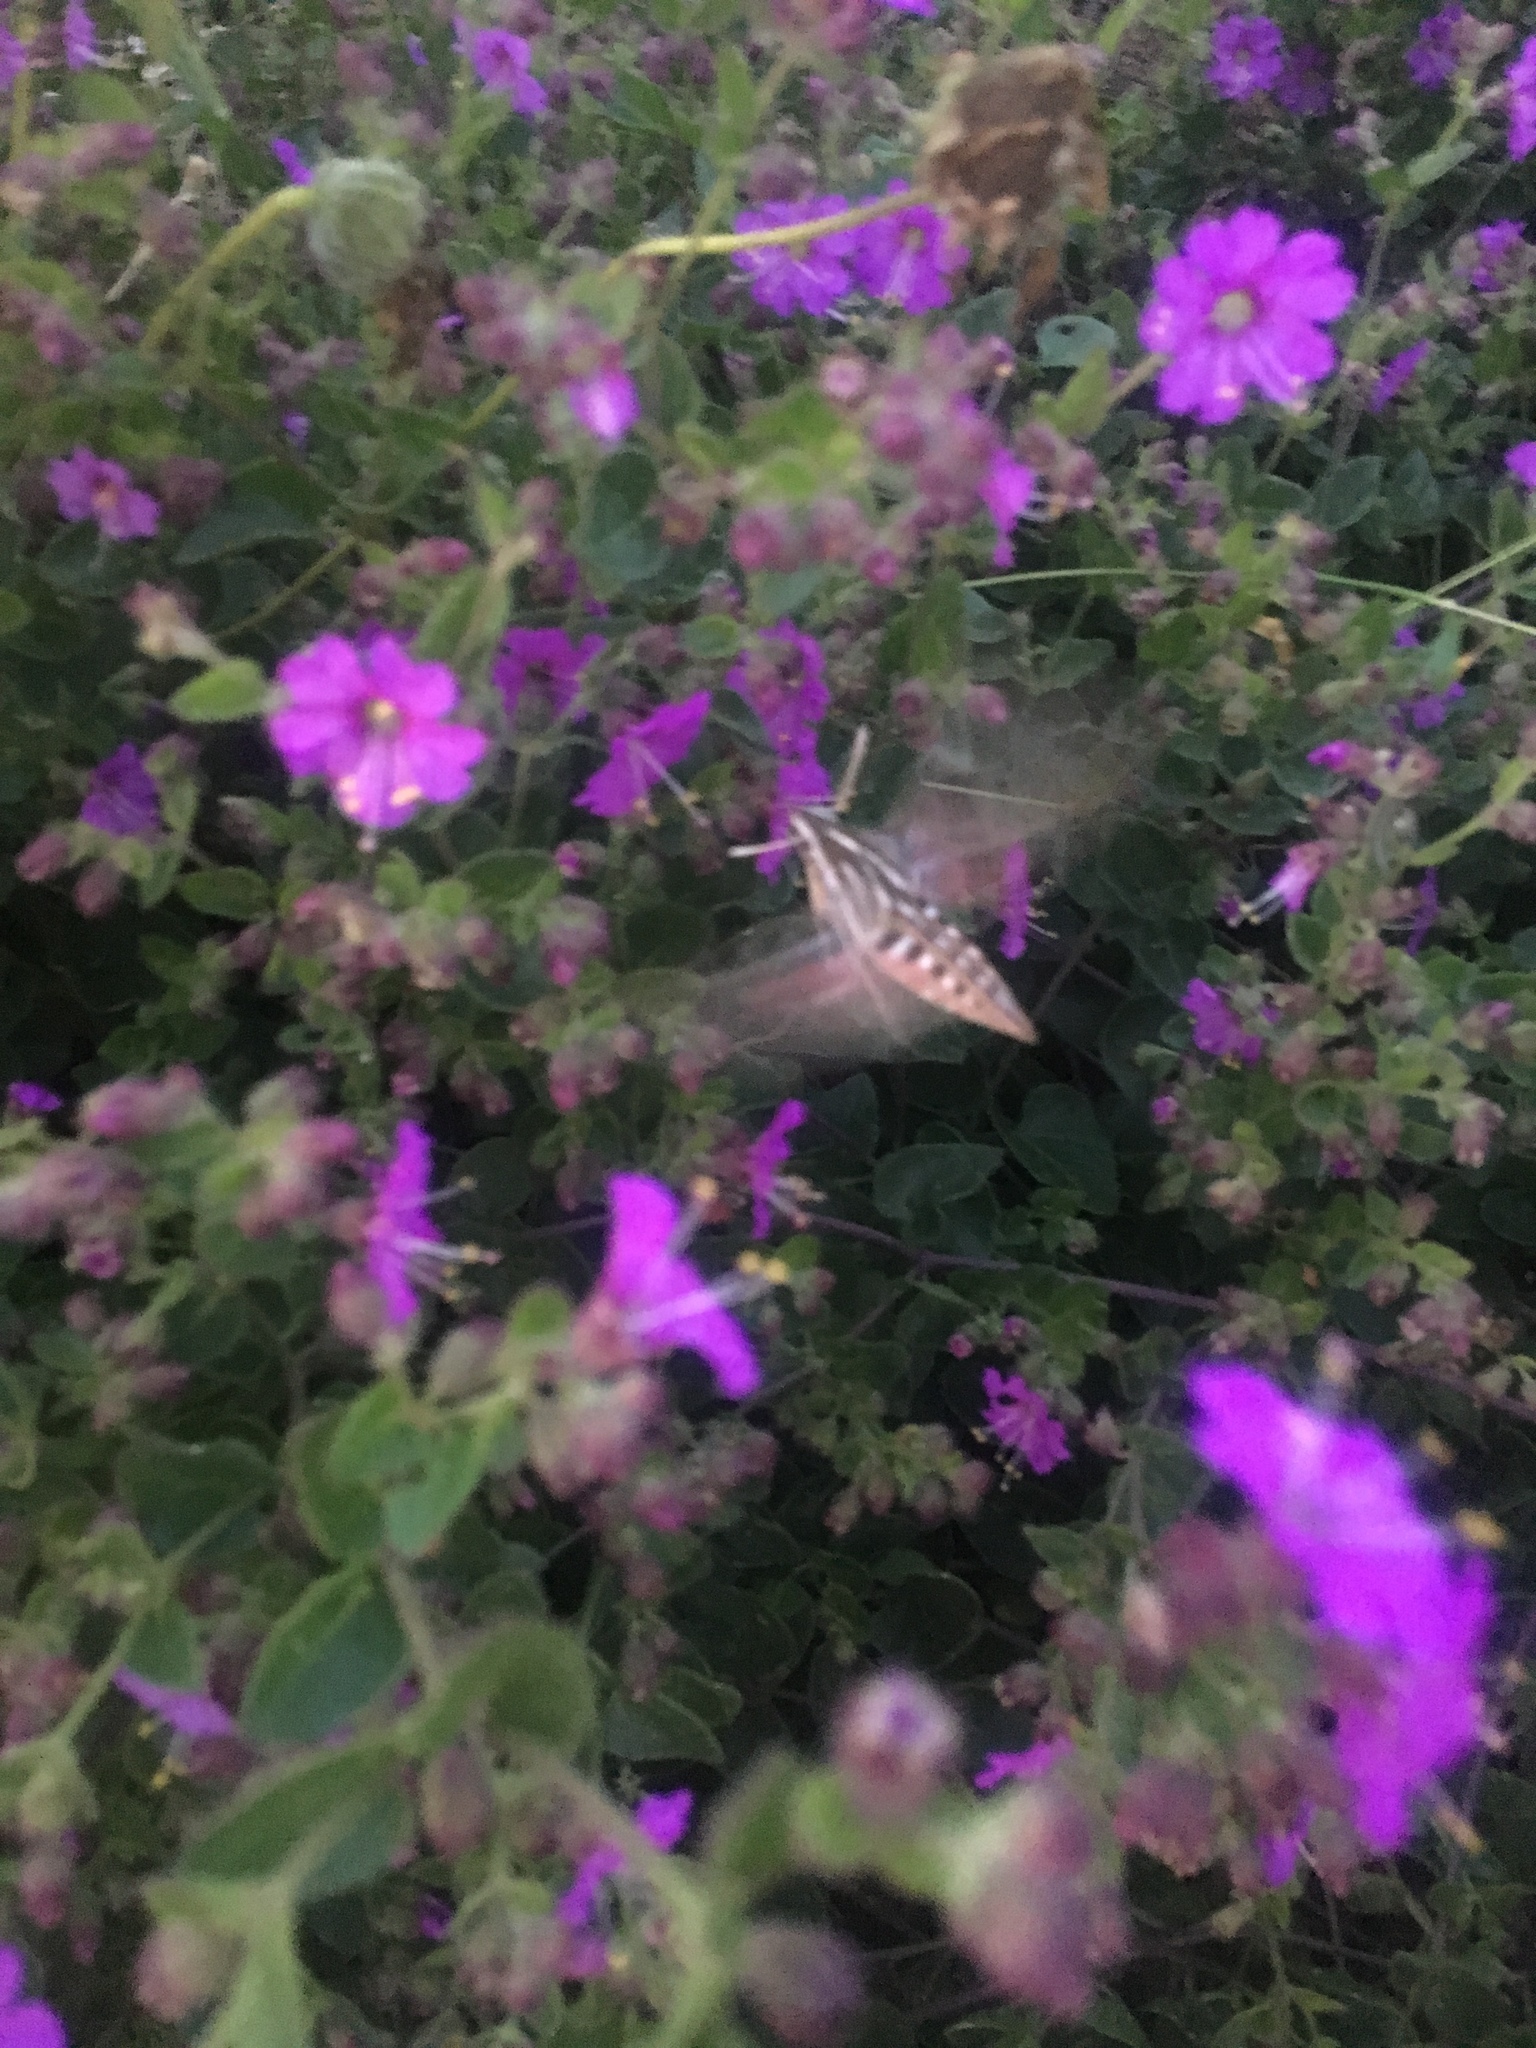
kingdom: Animalia
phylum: Arthropoda
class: Insecta
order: Lepidoptera
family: Sphingidae
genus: Hyles
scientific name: Hyles lineata
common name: White-lined sphinx
